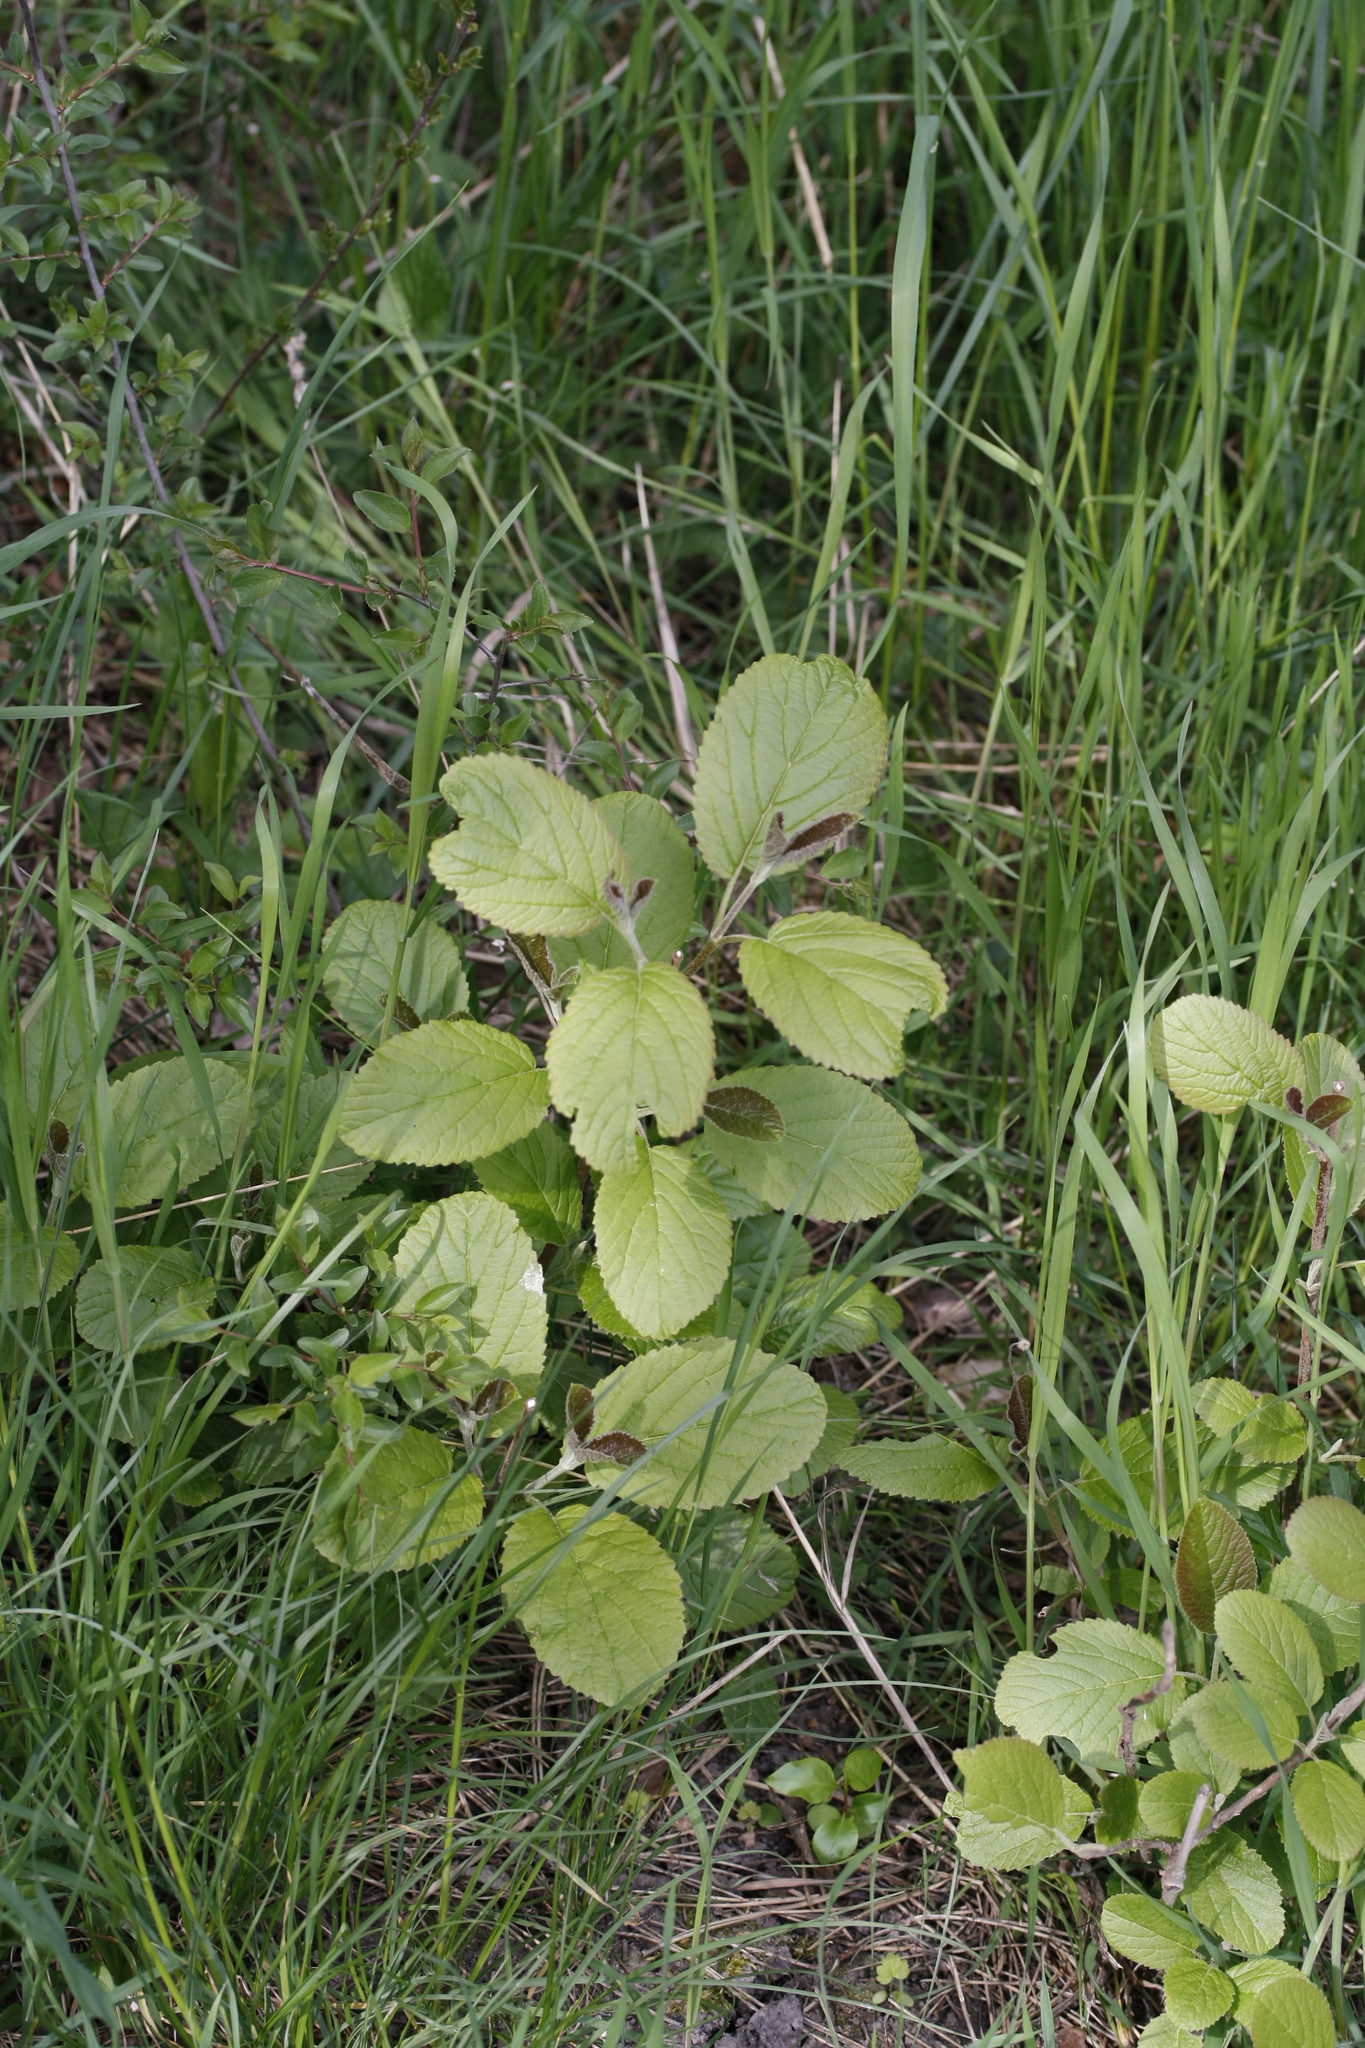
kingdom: Plantae
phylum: Tracheophyta
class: Magnoliopsida
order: Dipsacales
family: Viburnaceae
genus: Viburnum
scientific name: Viburnum lantana
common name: Wayfaring tree
